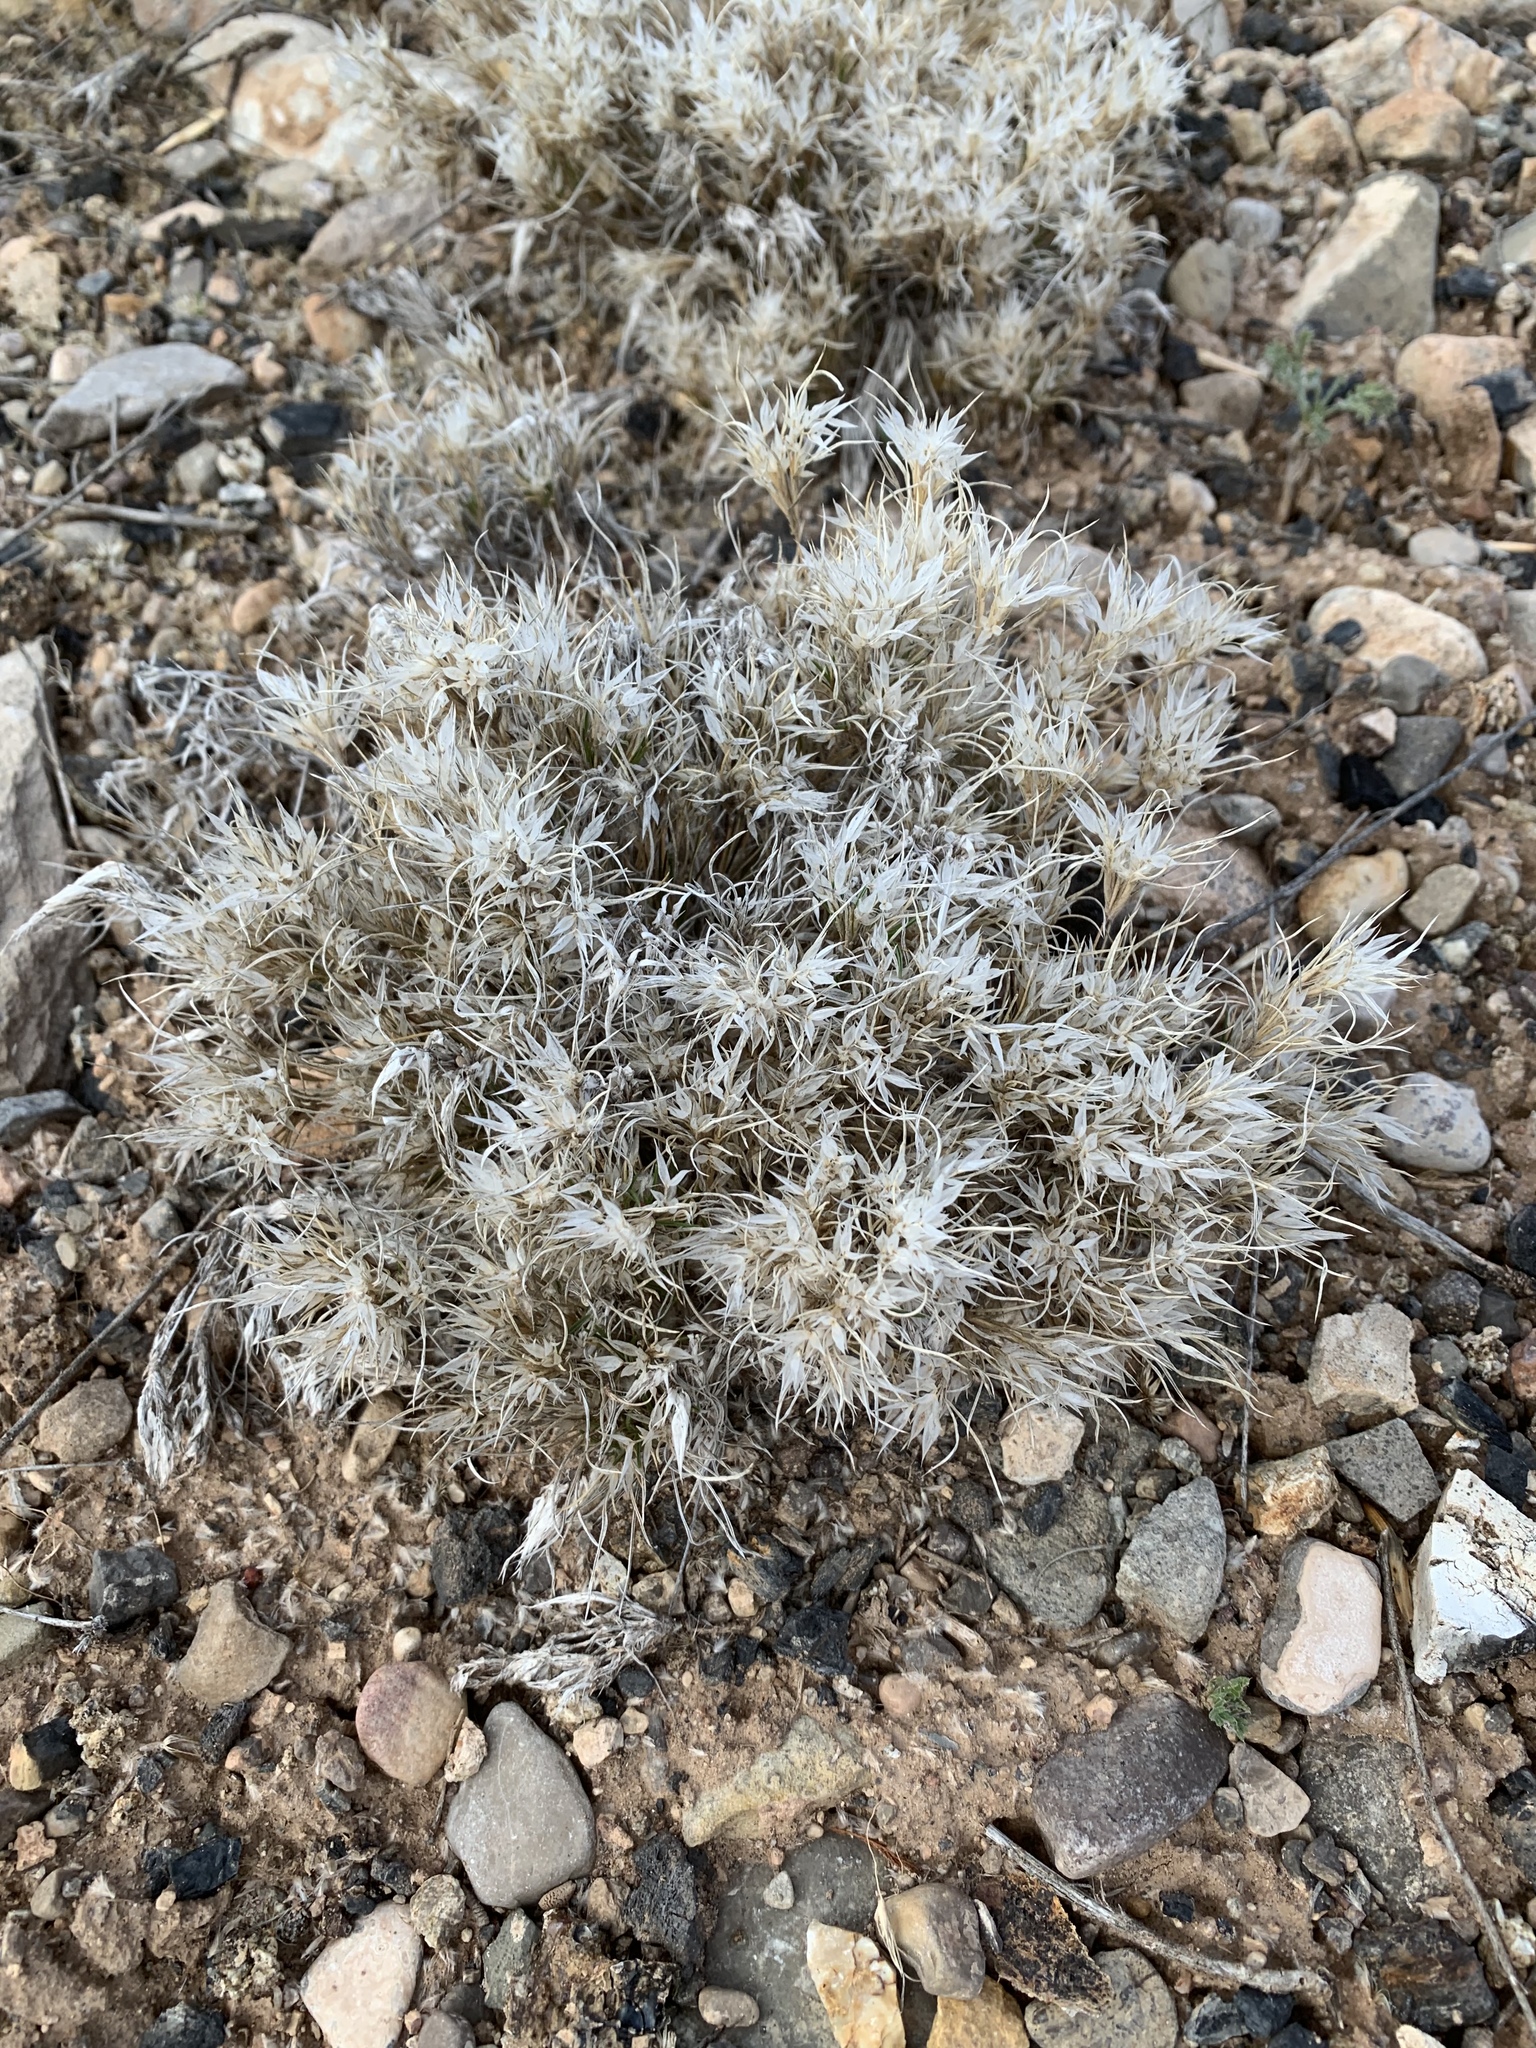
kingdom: Plantae
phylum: Tracheophyta
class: Liliopsida
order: Poales
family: Poaceae
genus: Dasyochloa
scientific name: Dasyochloa pulchella
